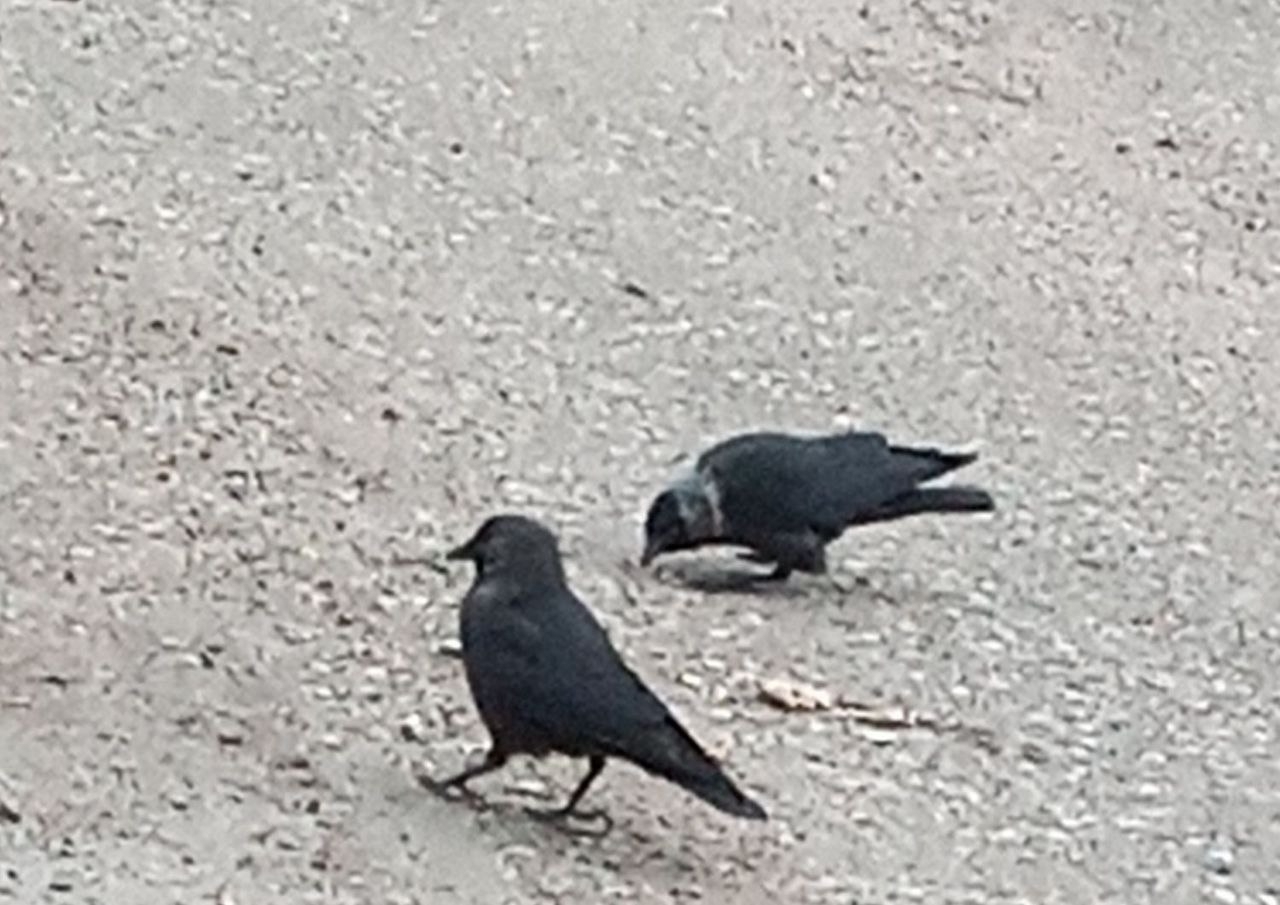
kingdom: Animalia
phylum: Chordata
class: Aves
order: Passeriformes
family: Corvidae
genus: Coloeus
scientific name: Coloeus monedula
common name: Western jackdaw
